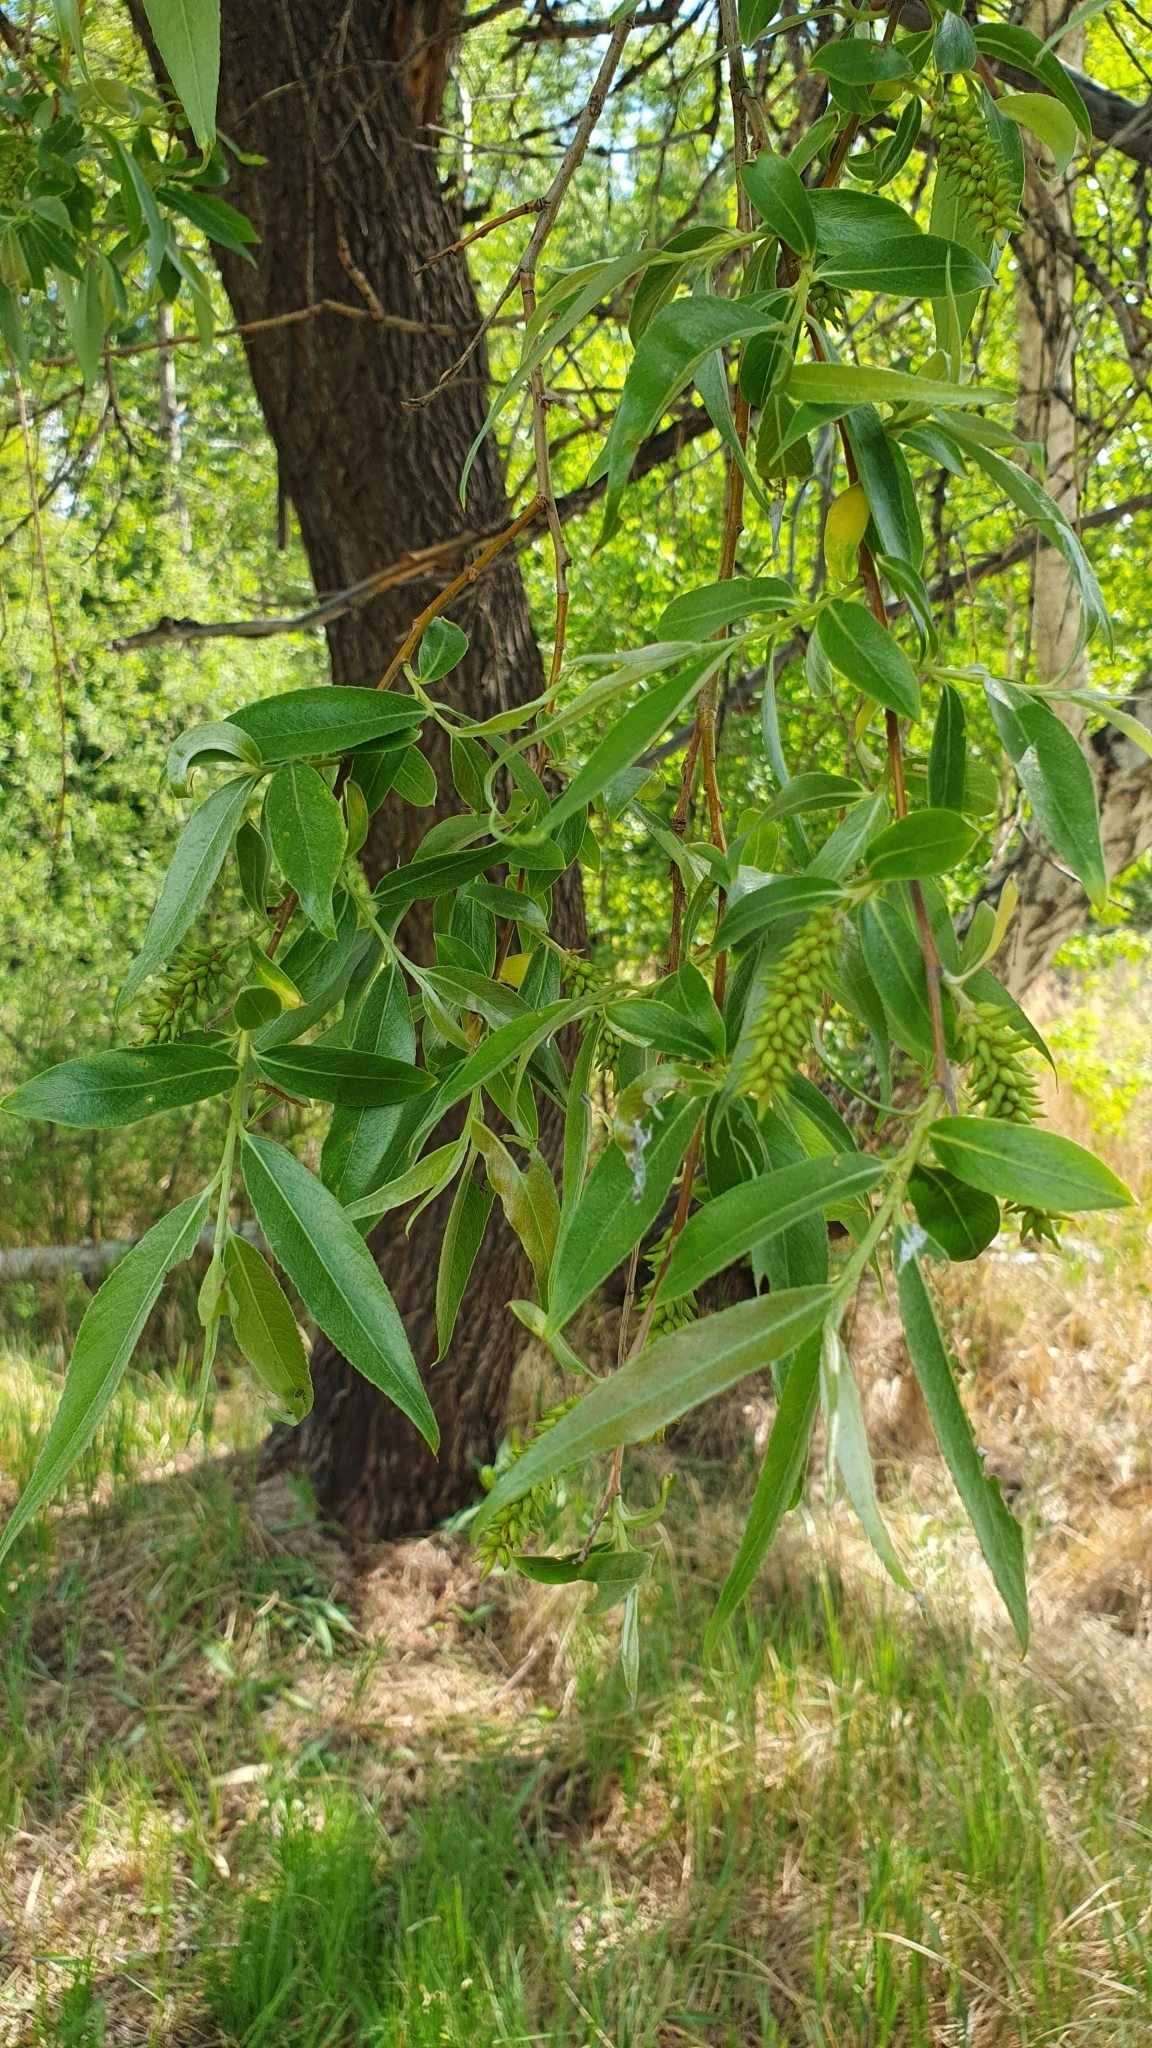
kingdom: Plantae
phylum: Tracheophyta
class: Magnoliopsida
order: Malpighiales
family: Salicaceae
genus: Salix
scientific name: Salix alba
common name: White willow
